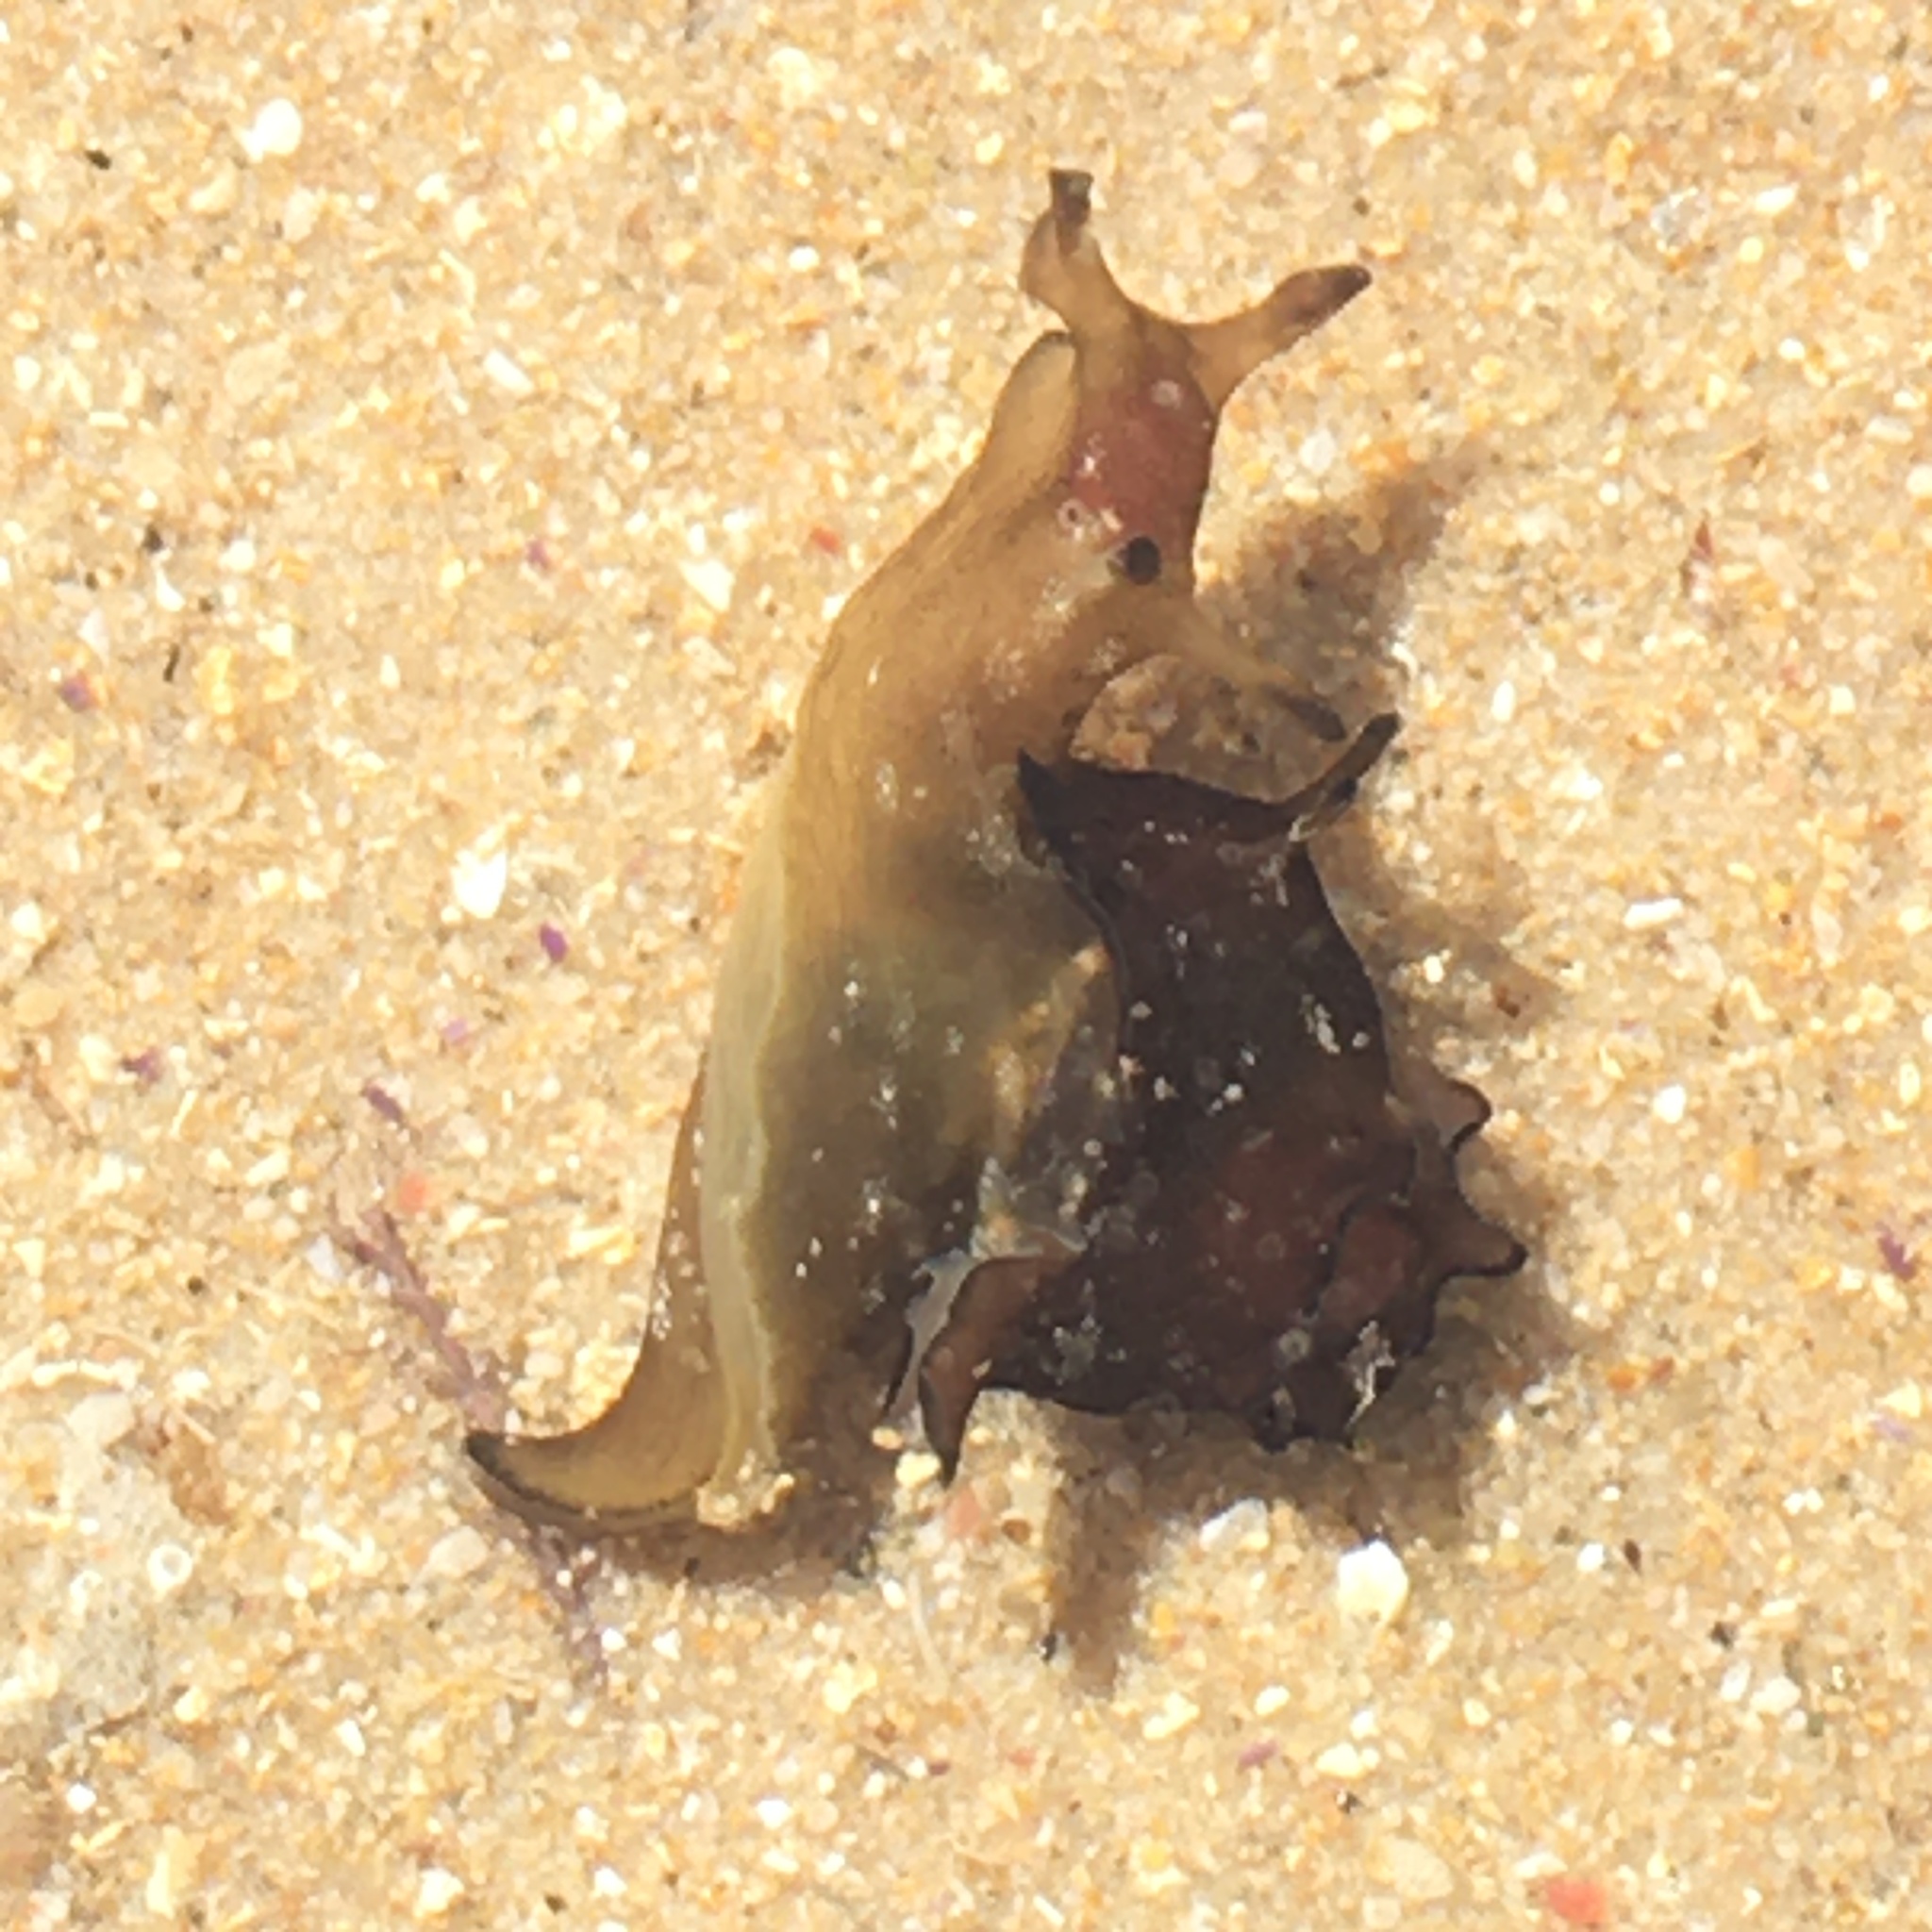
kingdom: Animalia
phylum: Mollusca
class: Gastropoda
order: Aplysiida
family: Aplysiidae
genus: Aplysia
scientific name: Aplysia punctata
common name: Common sea hare
